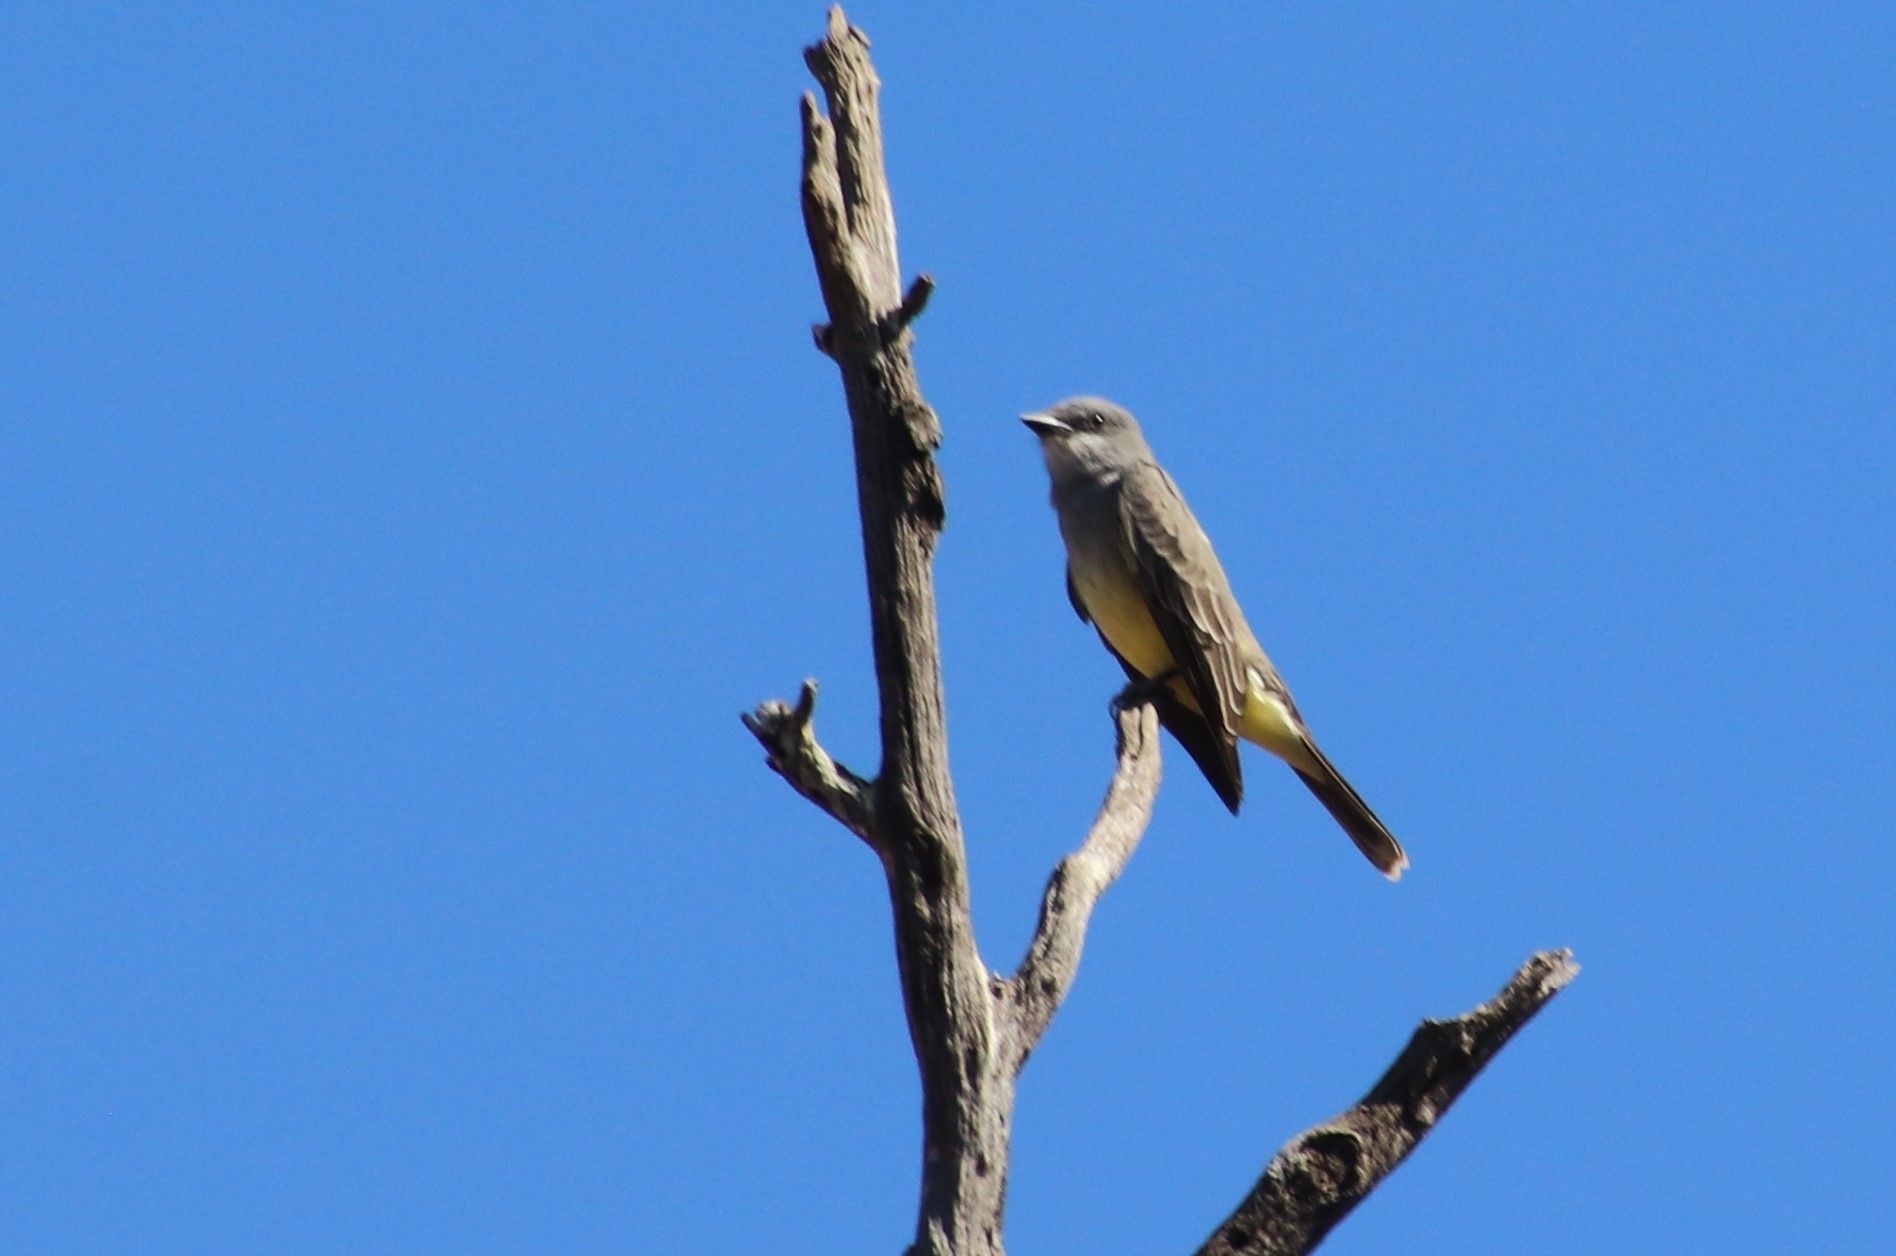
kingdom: Animalia
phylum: Chordata
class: Aves
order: Passeriformes
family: Tyrannidae
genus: Tyrannus
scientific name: Tyrannus vociferans
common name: Cassin's kingbird
